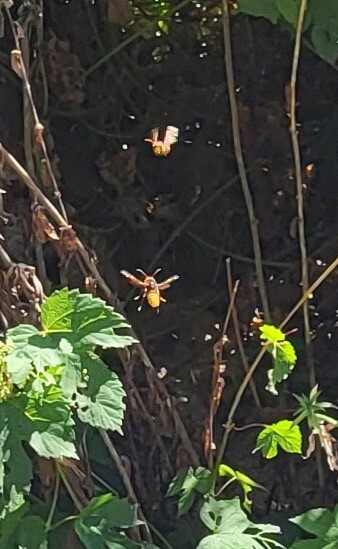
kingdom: Animalia
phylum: Arthropoda
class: Insecta
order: Hymenoptera
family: Vespidae
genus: Vespa
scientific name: Vespa crabro
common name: Hornet
